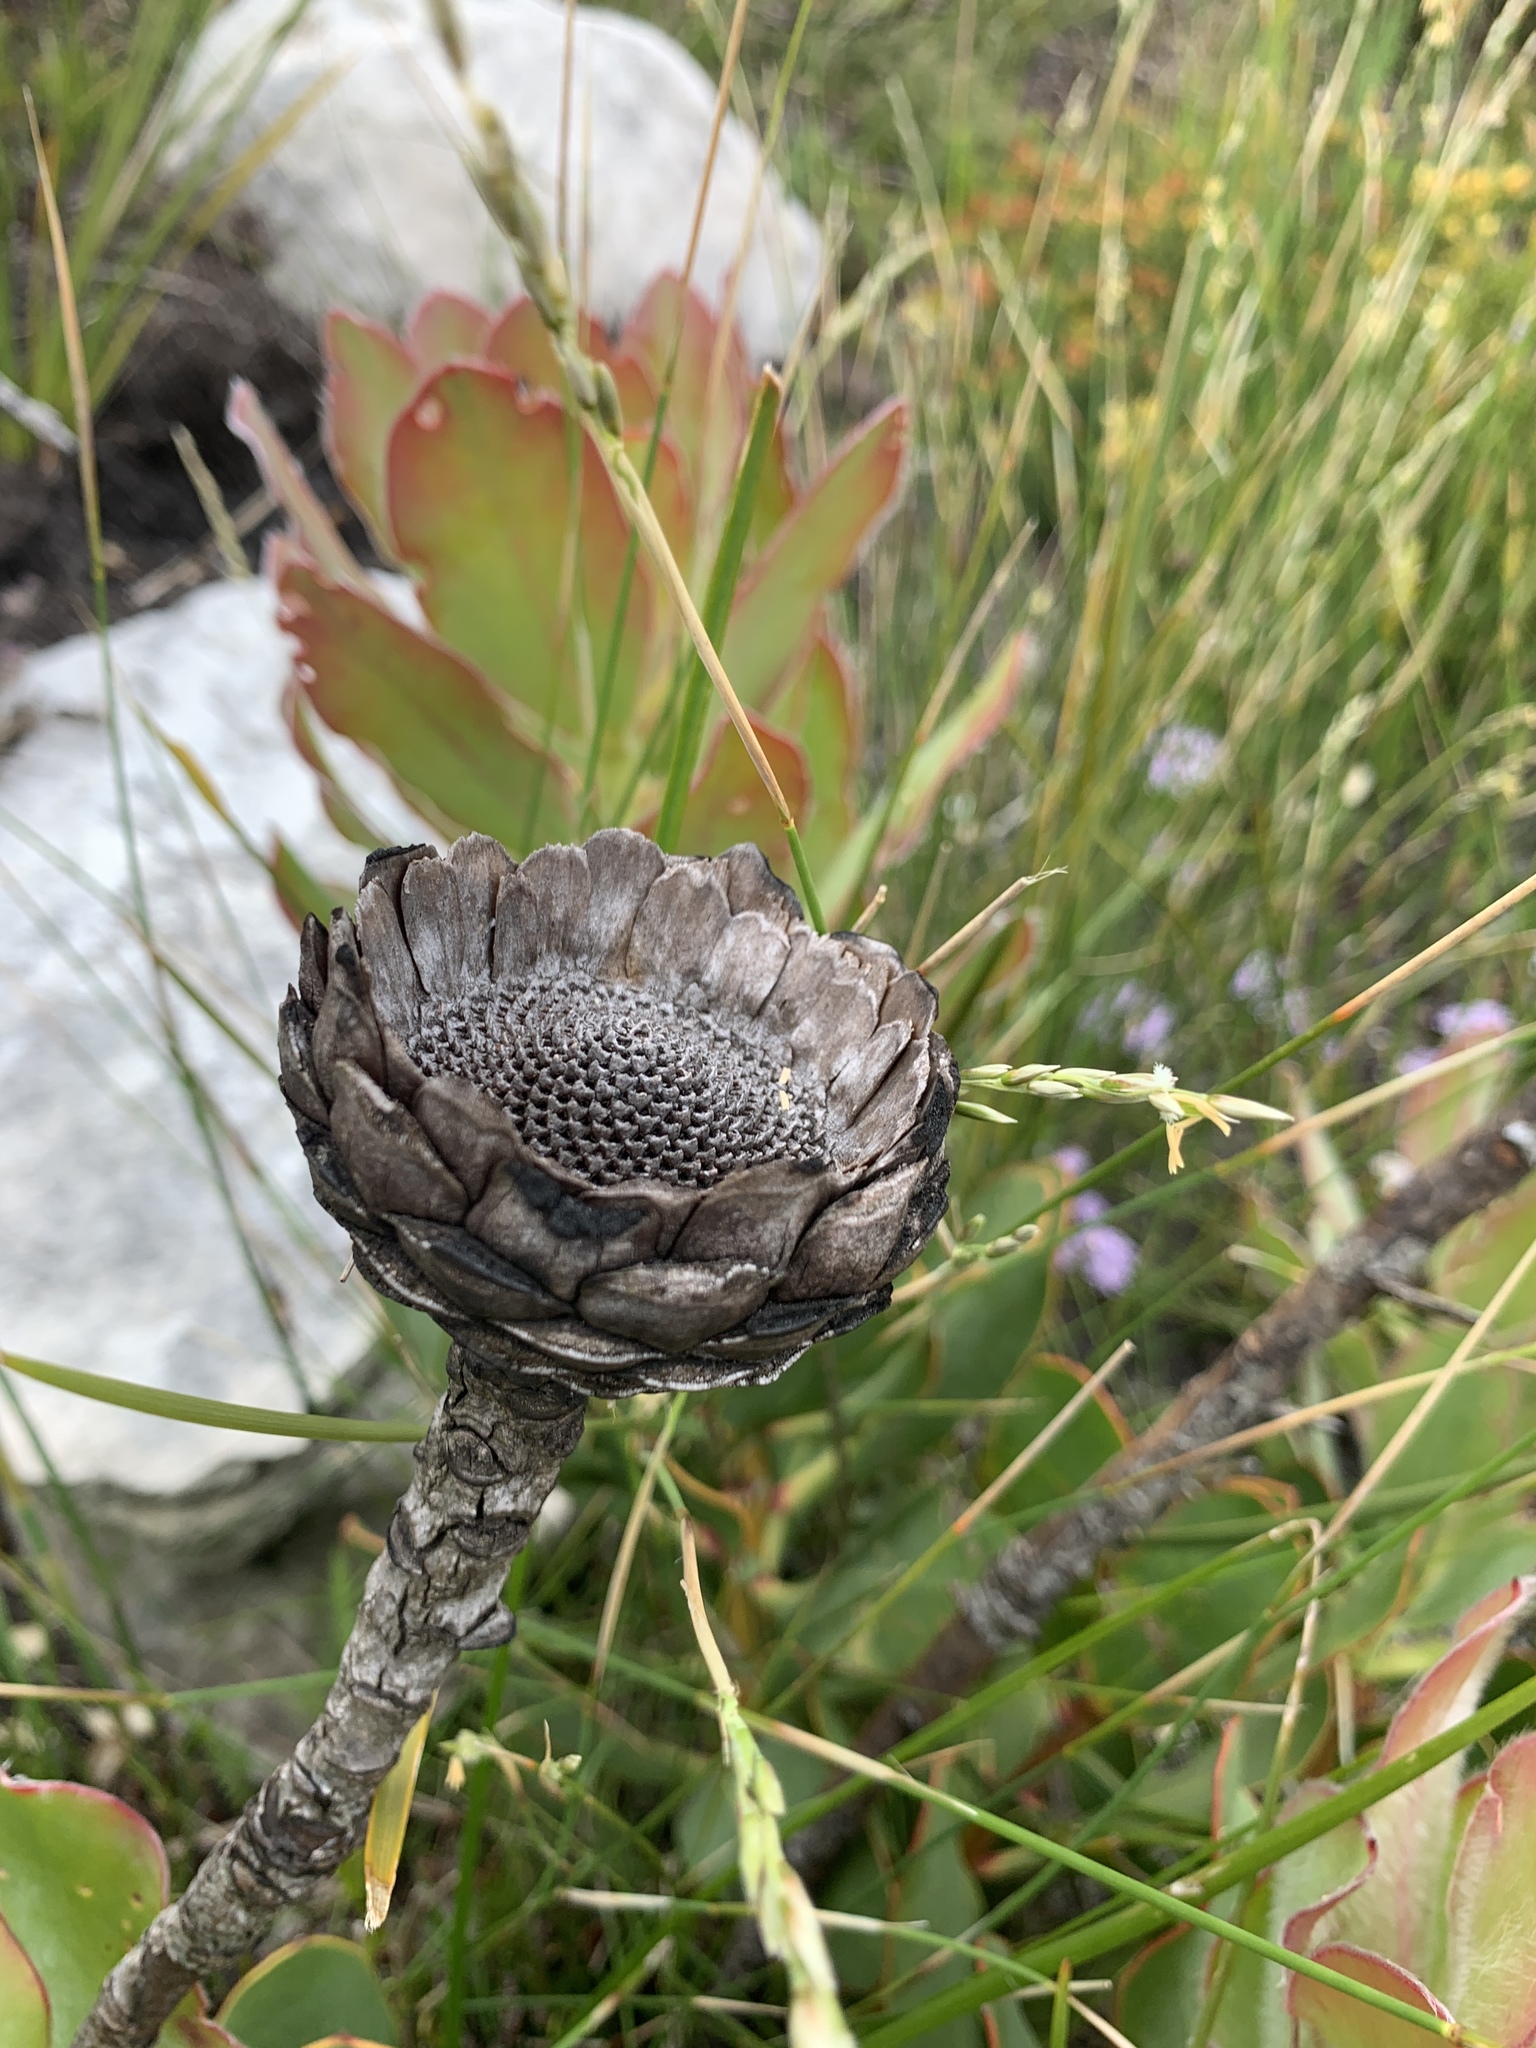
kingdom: Plantae
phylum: Tracheophyta
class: Magnoliopsida
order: Proteales
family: Proteaceae
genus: Protea
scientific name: Protea speciosa
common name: Brown-beard sugarbush
